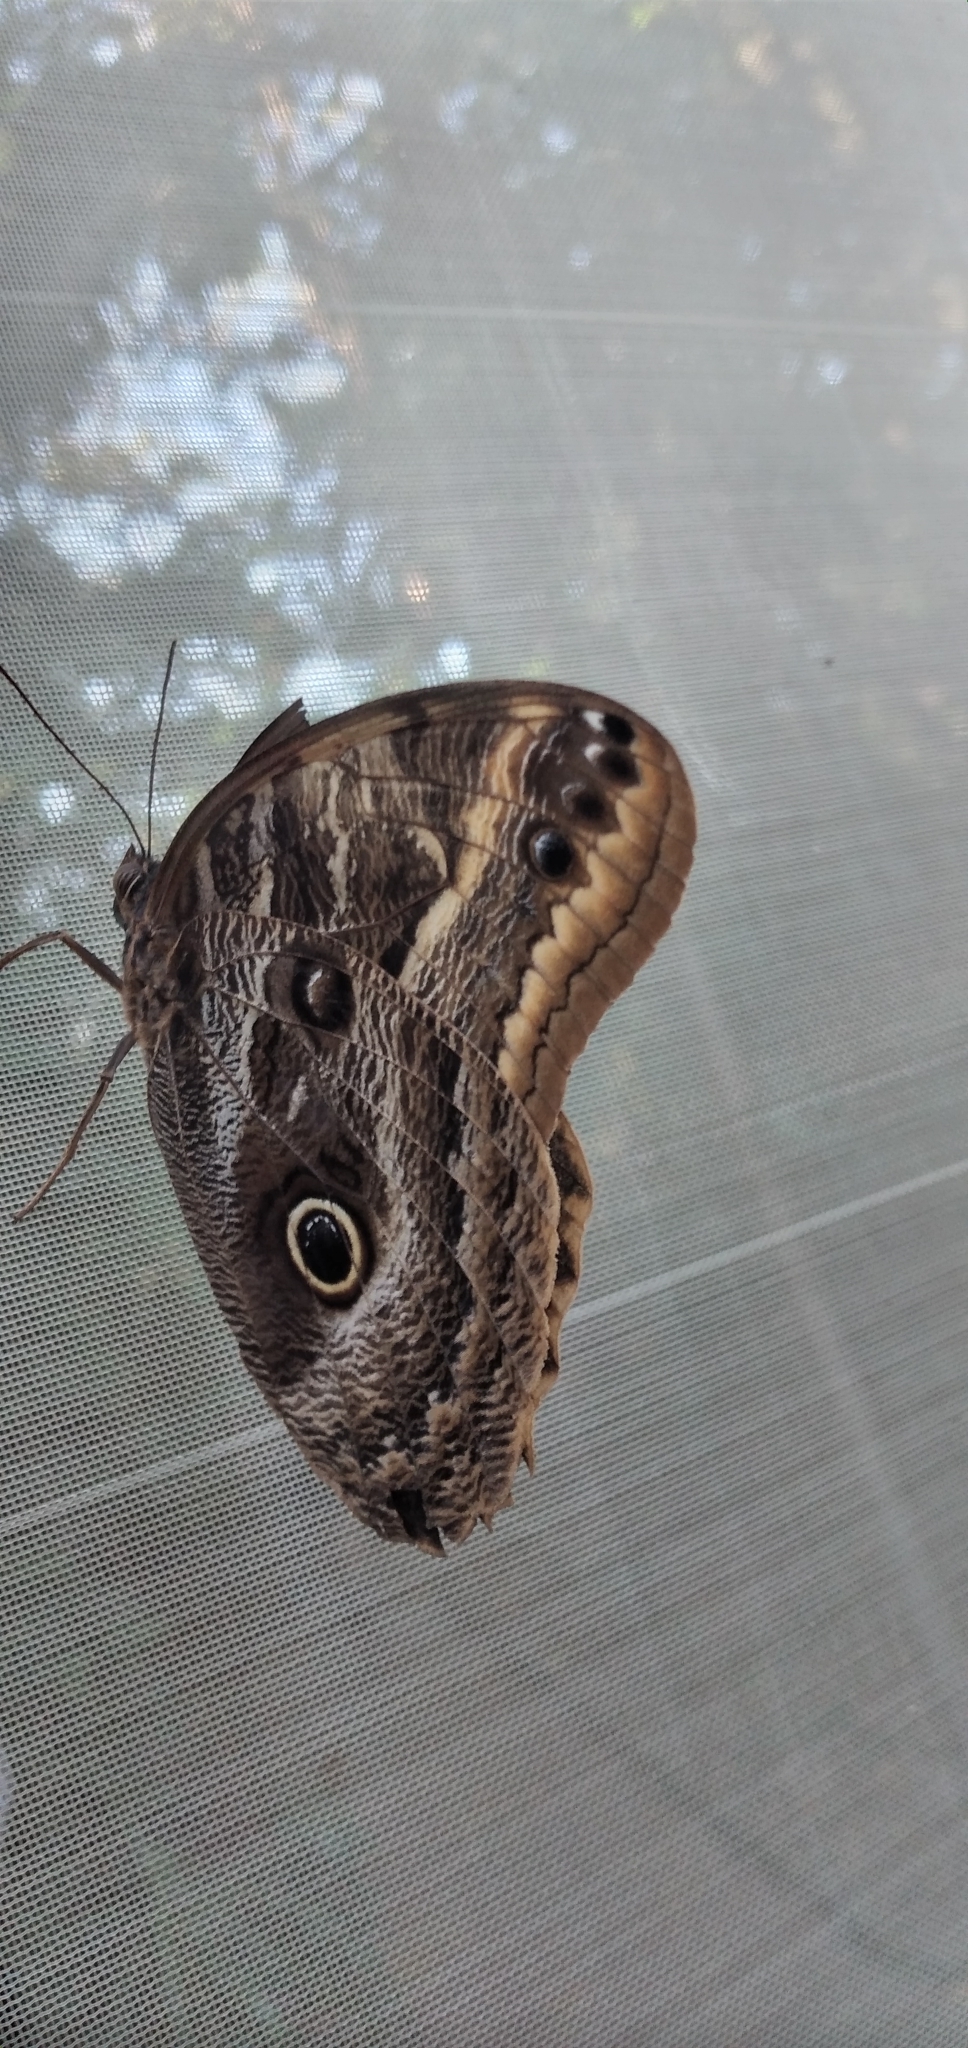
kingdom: Animalia
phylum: Arthropoda
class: Insecta
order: Lepidoptera
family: Nymphalidae
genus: Caligo
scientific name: Caligo illioneus
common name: Dusky owl-butterfly
